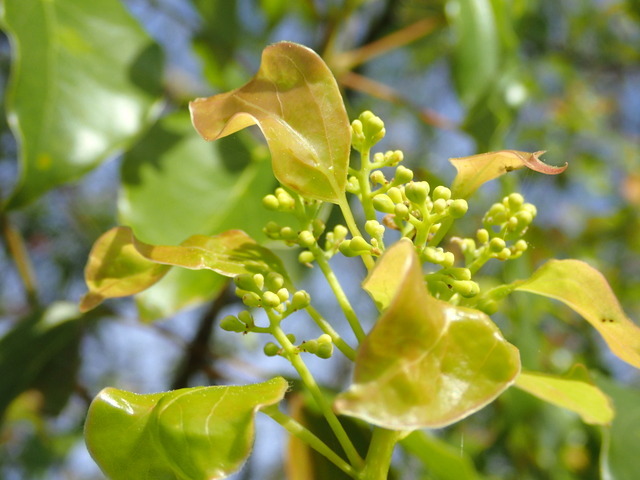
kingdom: Plantae
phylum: Tracheophyta
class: Magnoliopsida
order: Laurales
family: Lauraceae
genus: Cinnamomum
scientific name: Cinnamomum camphora
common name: Camphortree
